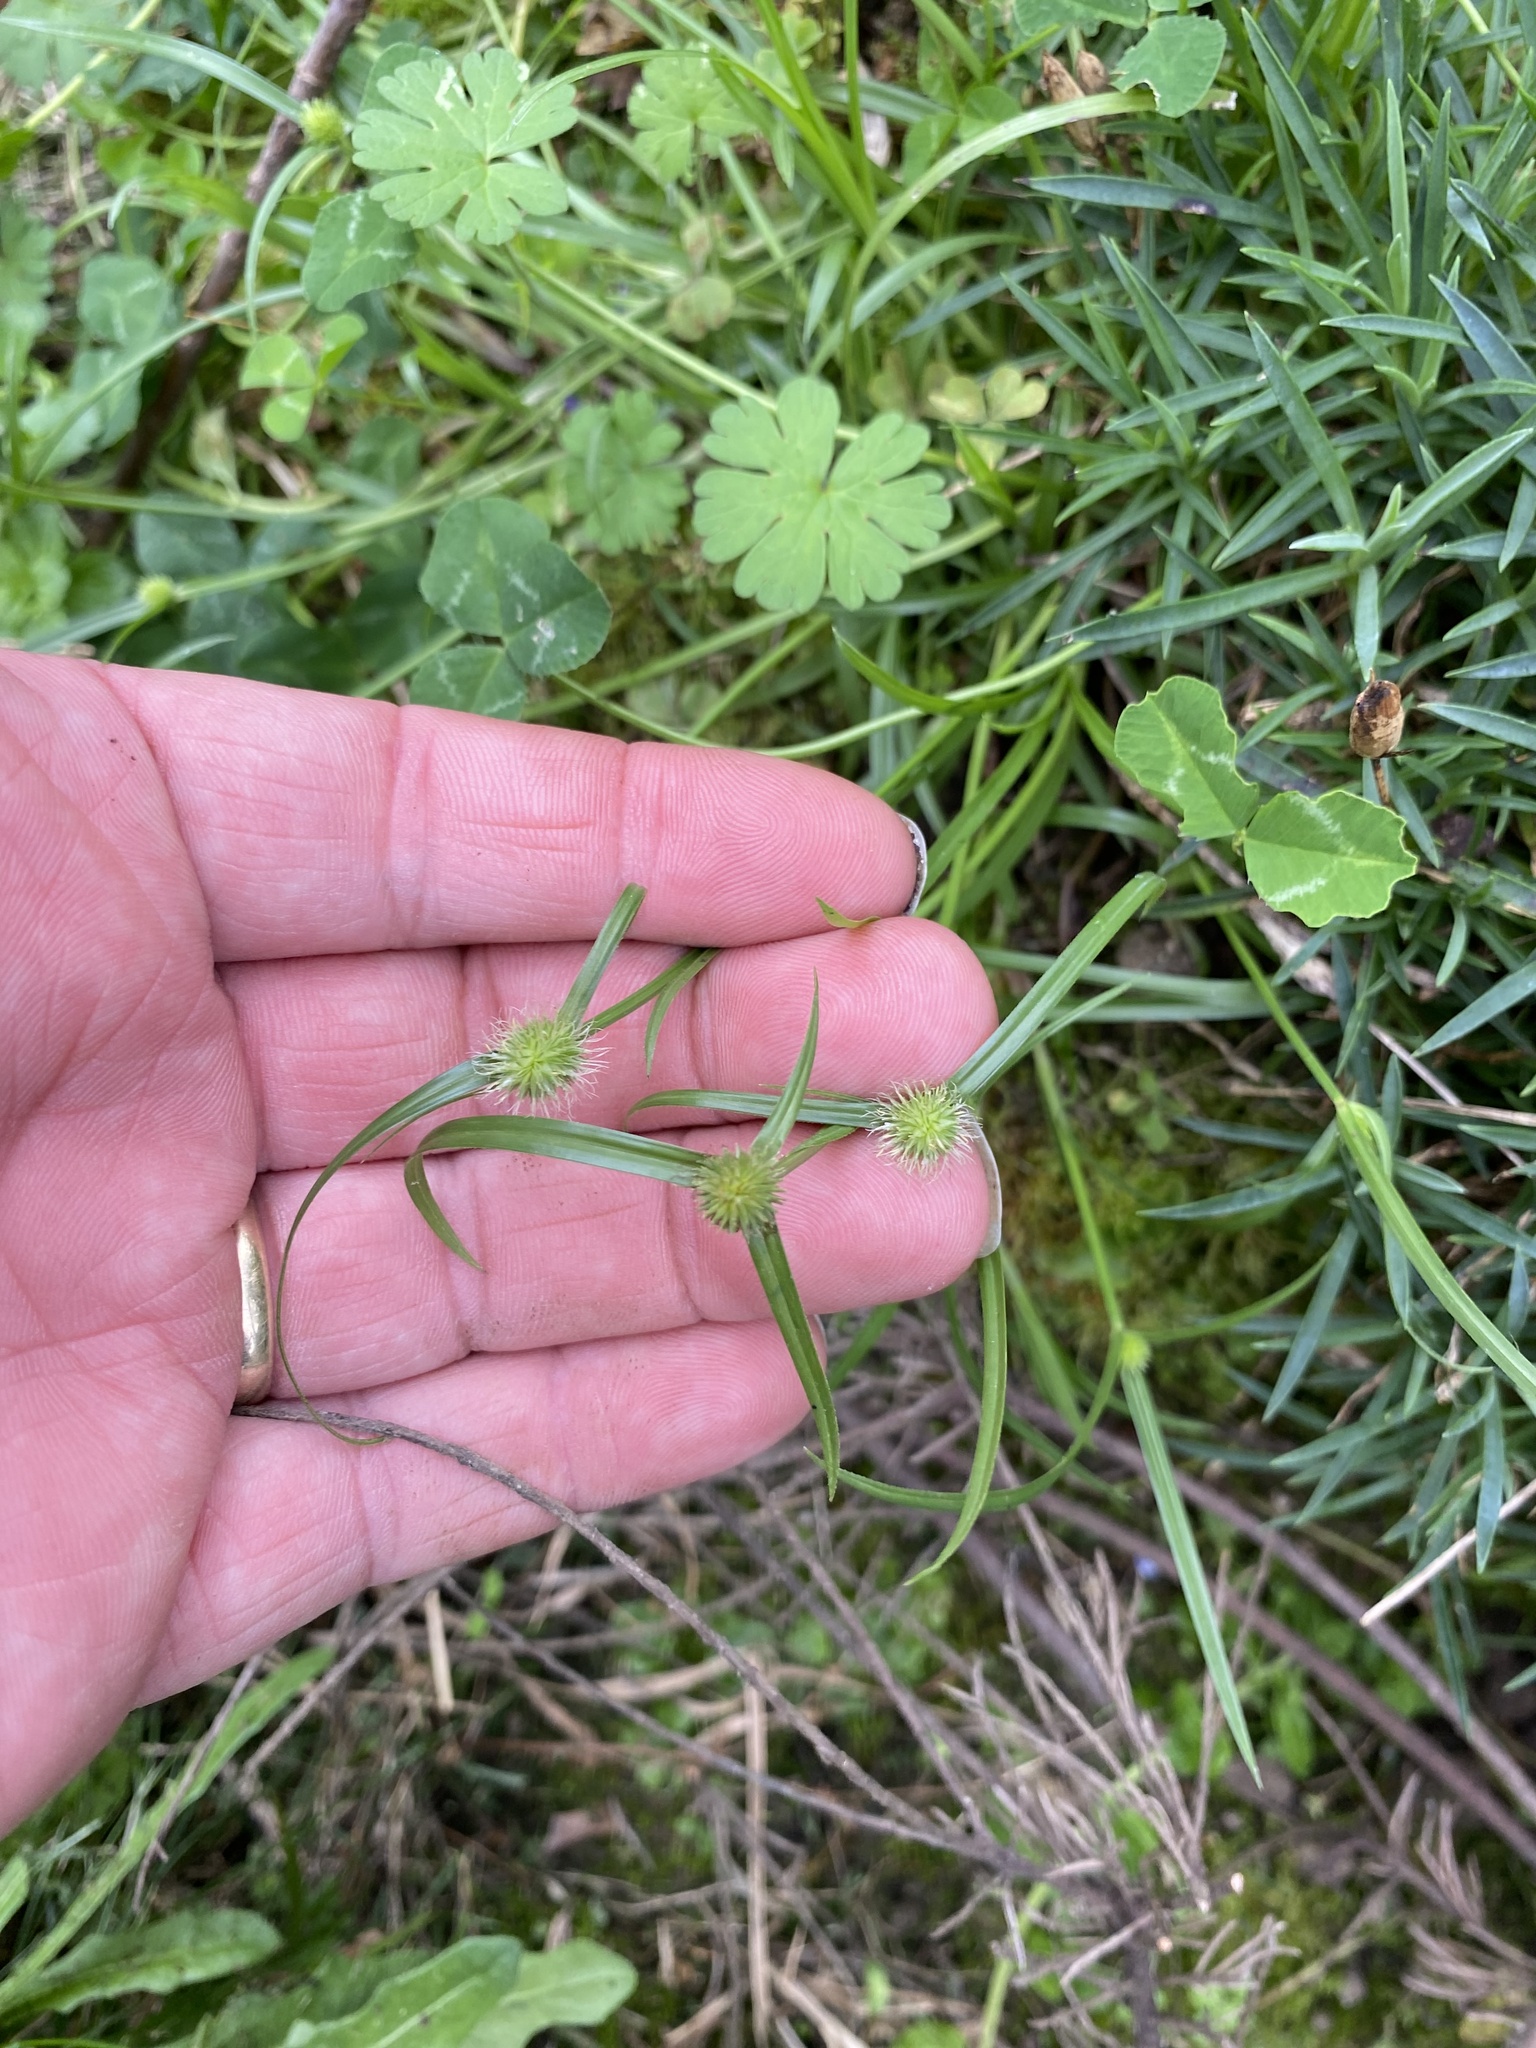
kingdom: Plantae
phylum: Tracheophyta
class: Liliopsida
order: Poales
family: Cyperaceae
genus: Cyperus
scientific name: Cyperus brevifolius
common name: Globe kyllinga
